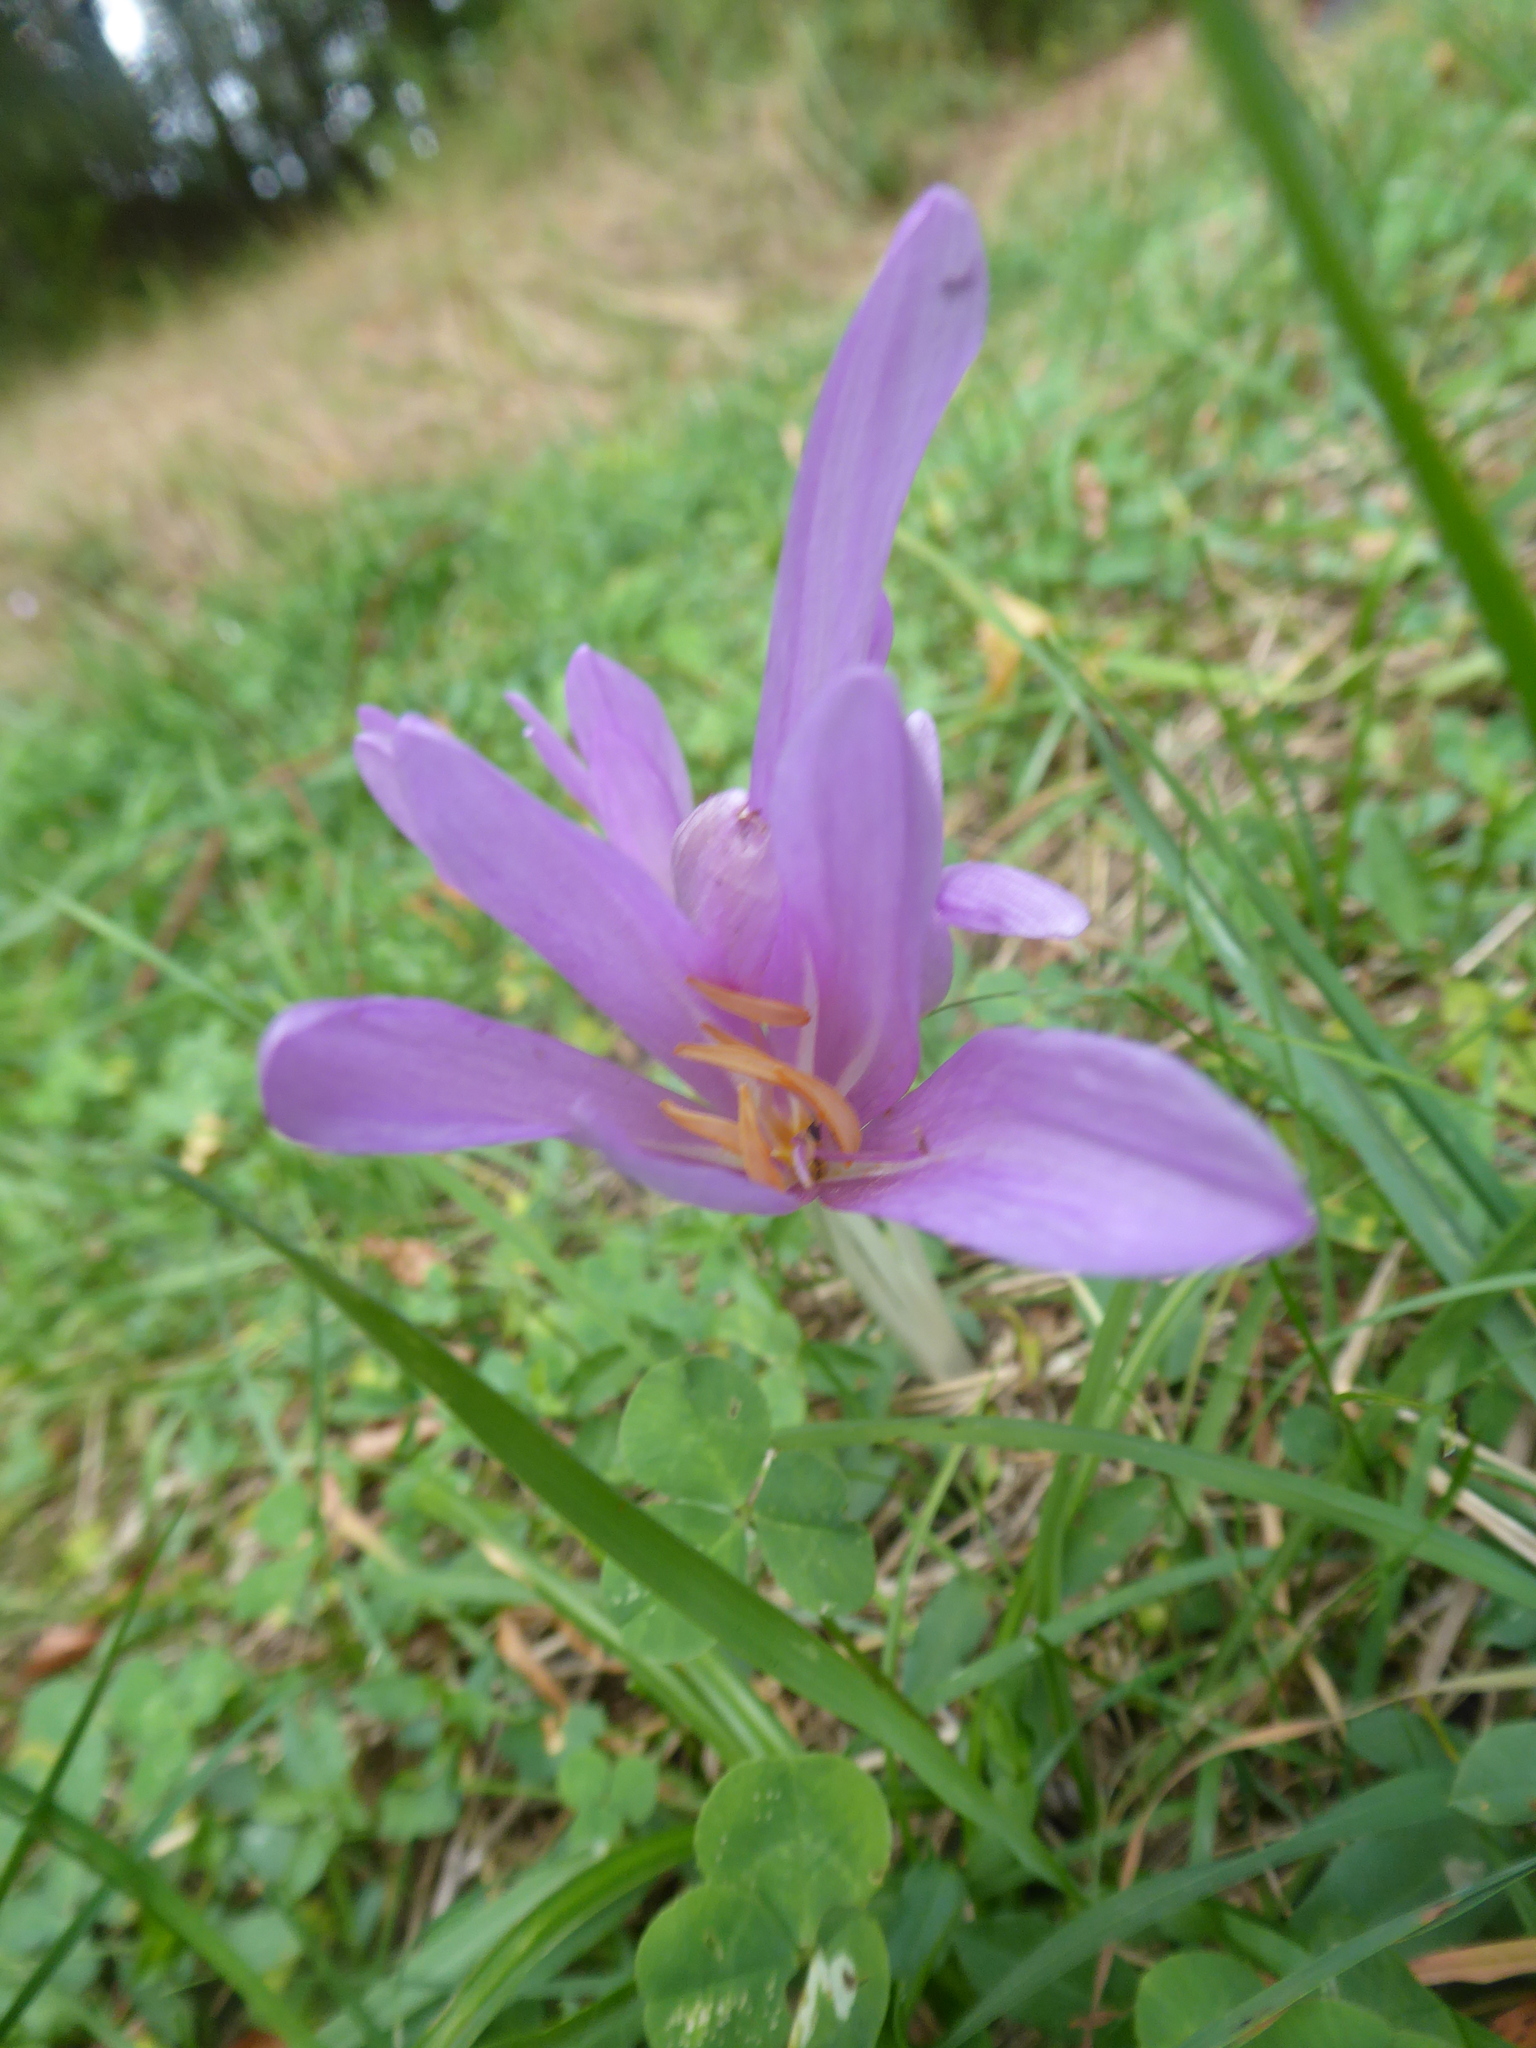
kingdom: Plantae
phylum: Tracheophyta
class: Liliopsida
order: Liliales
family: Colchicaceae
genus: Colchicum
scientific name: Colchicum autumnale
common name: Autumn crocus
